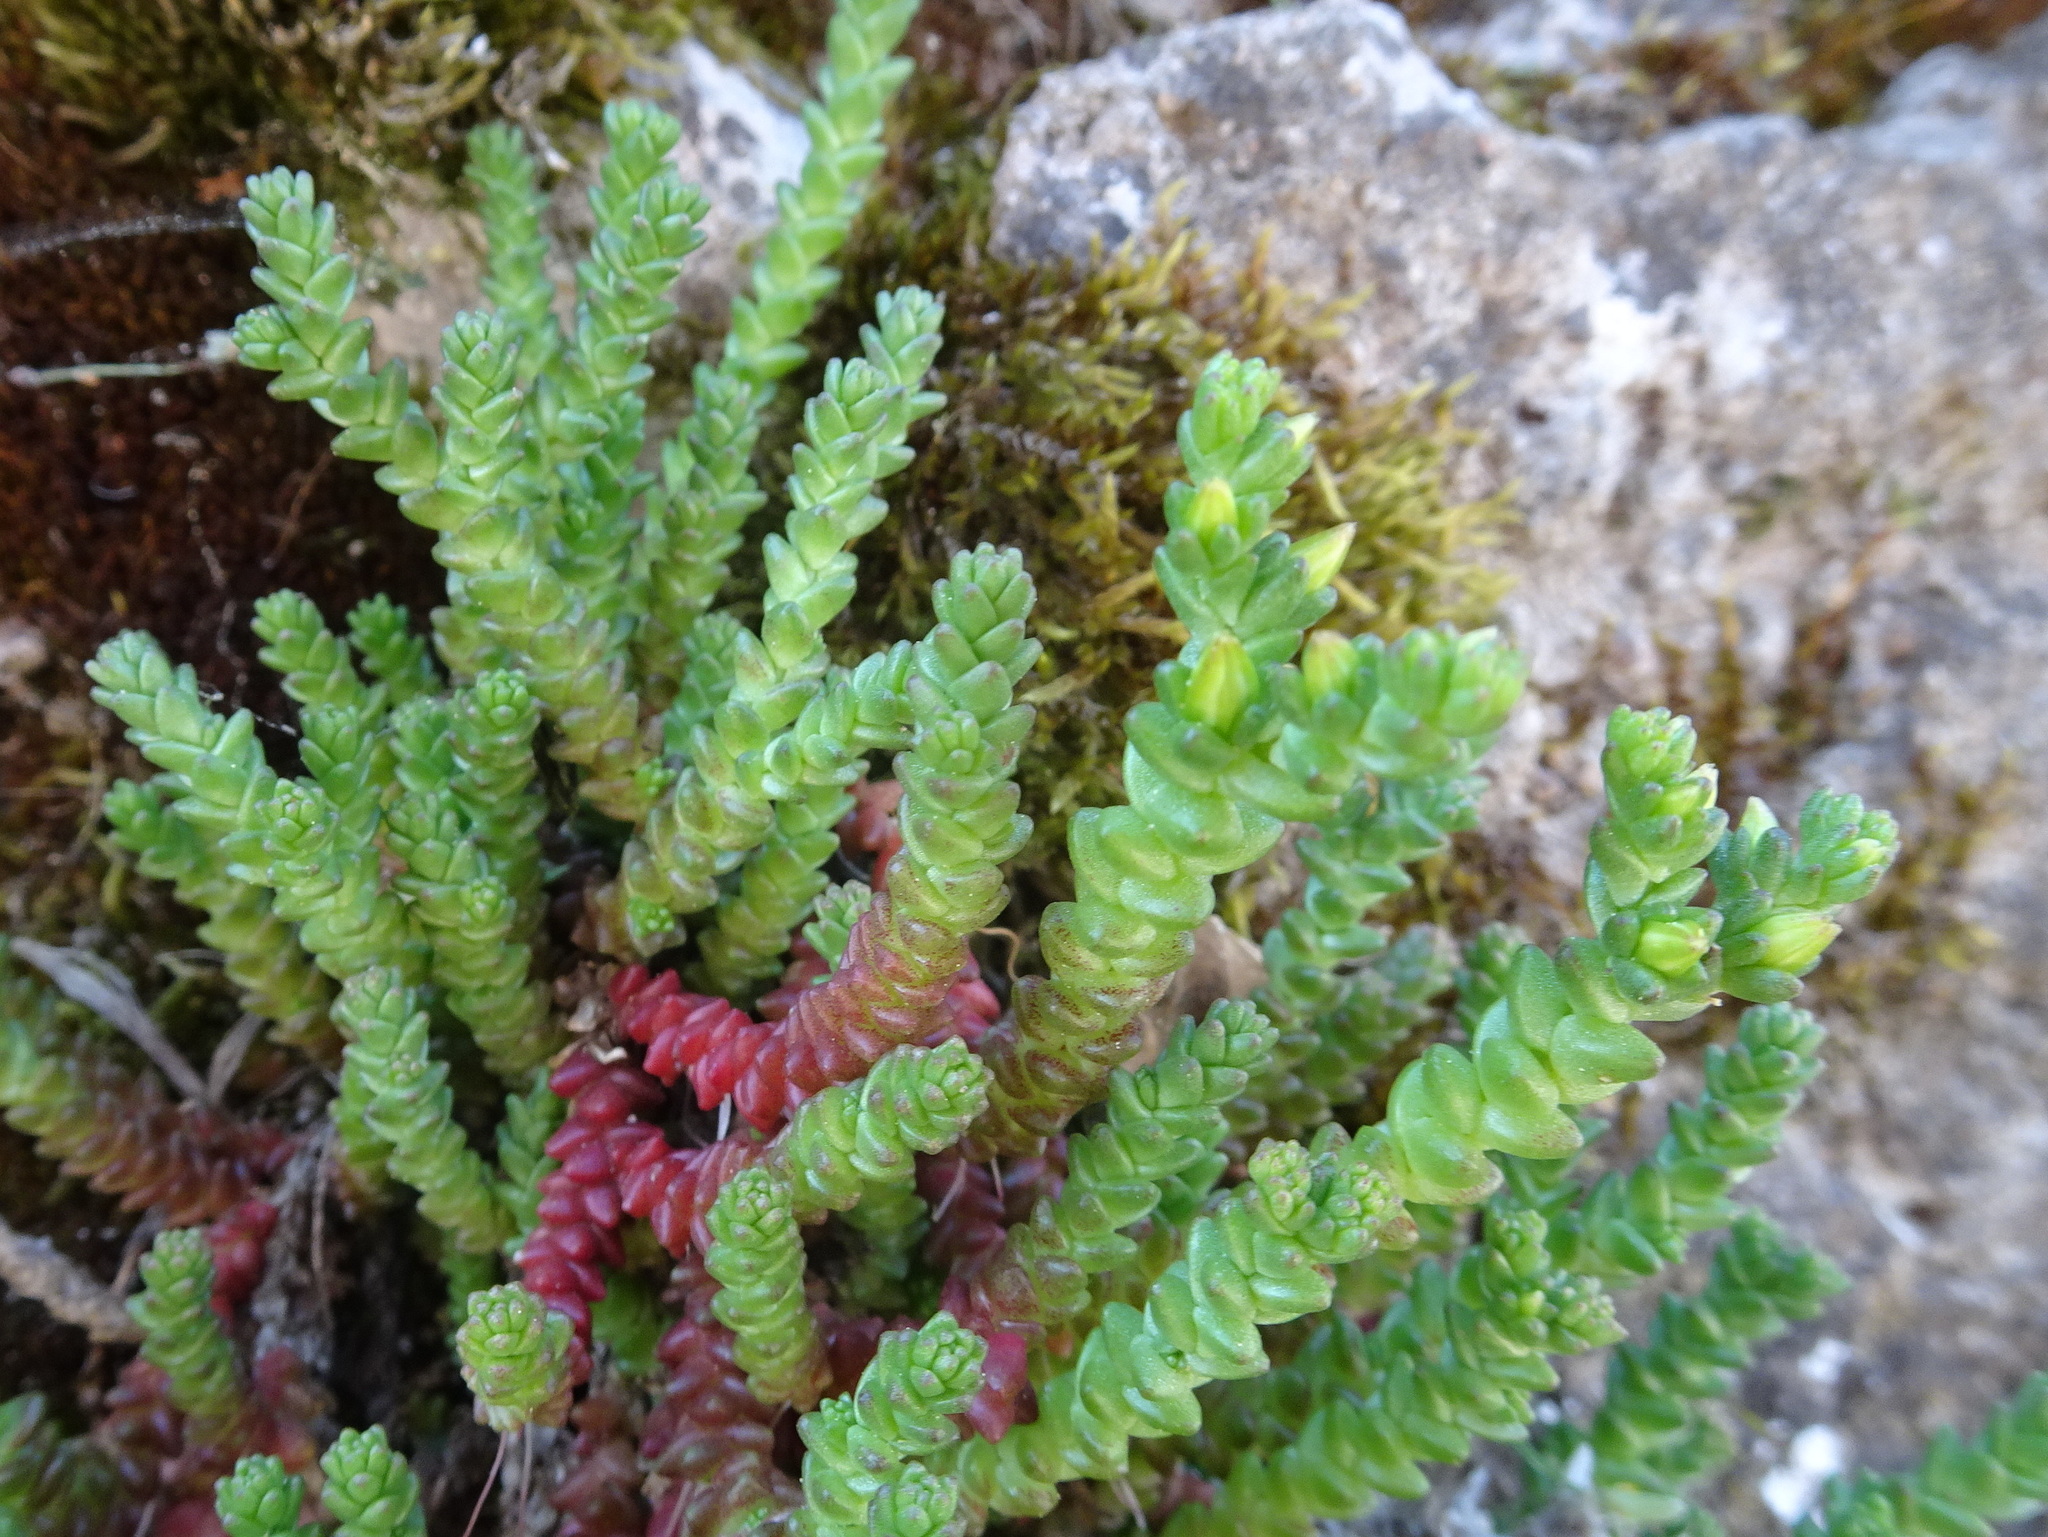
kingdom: Plantae
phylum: Tracheophyta
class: Magnoliopsida
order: Saxifragales
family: Crassulaceae
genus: Sedum
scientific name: Sedum acre
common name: Biting stonecrop
